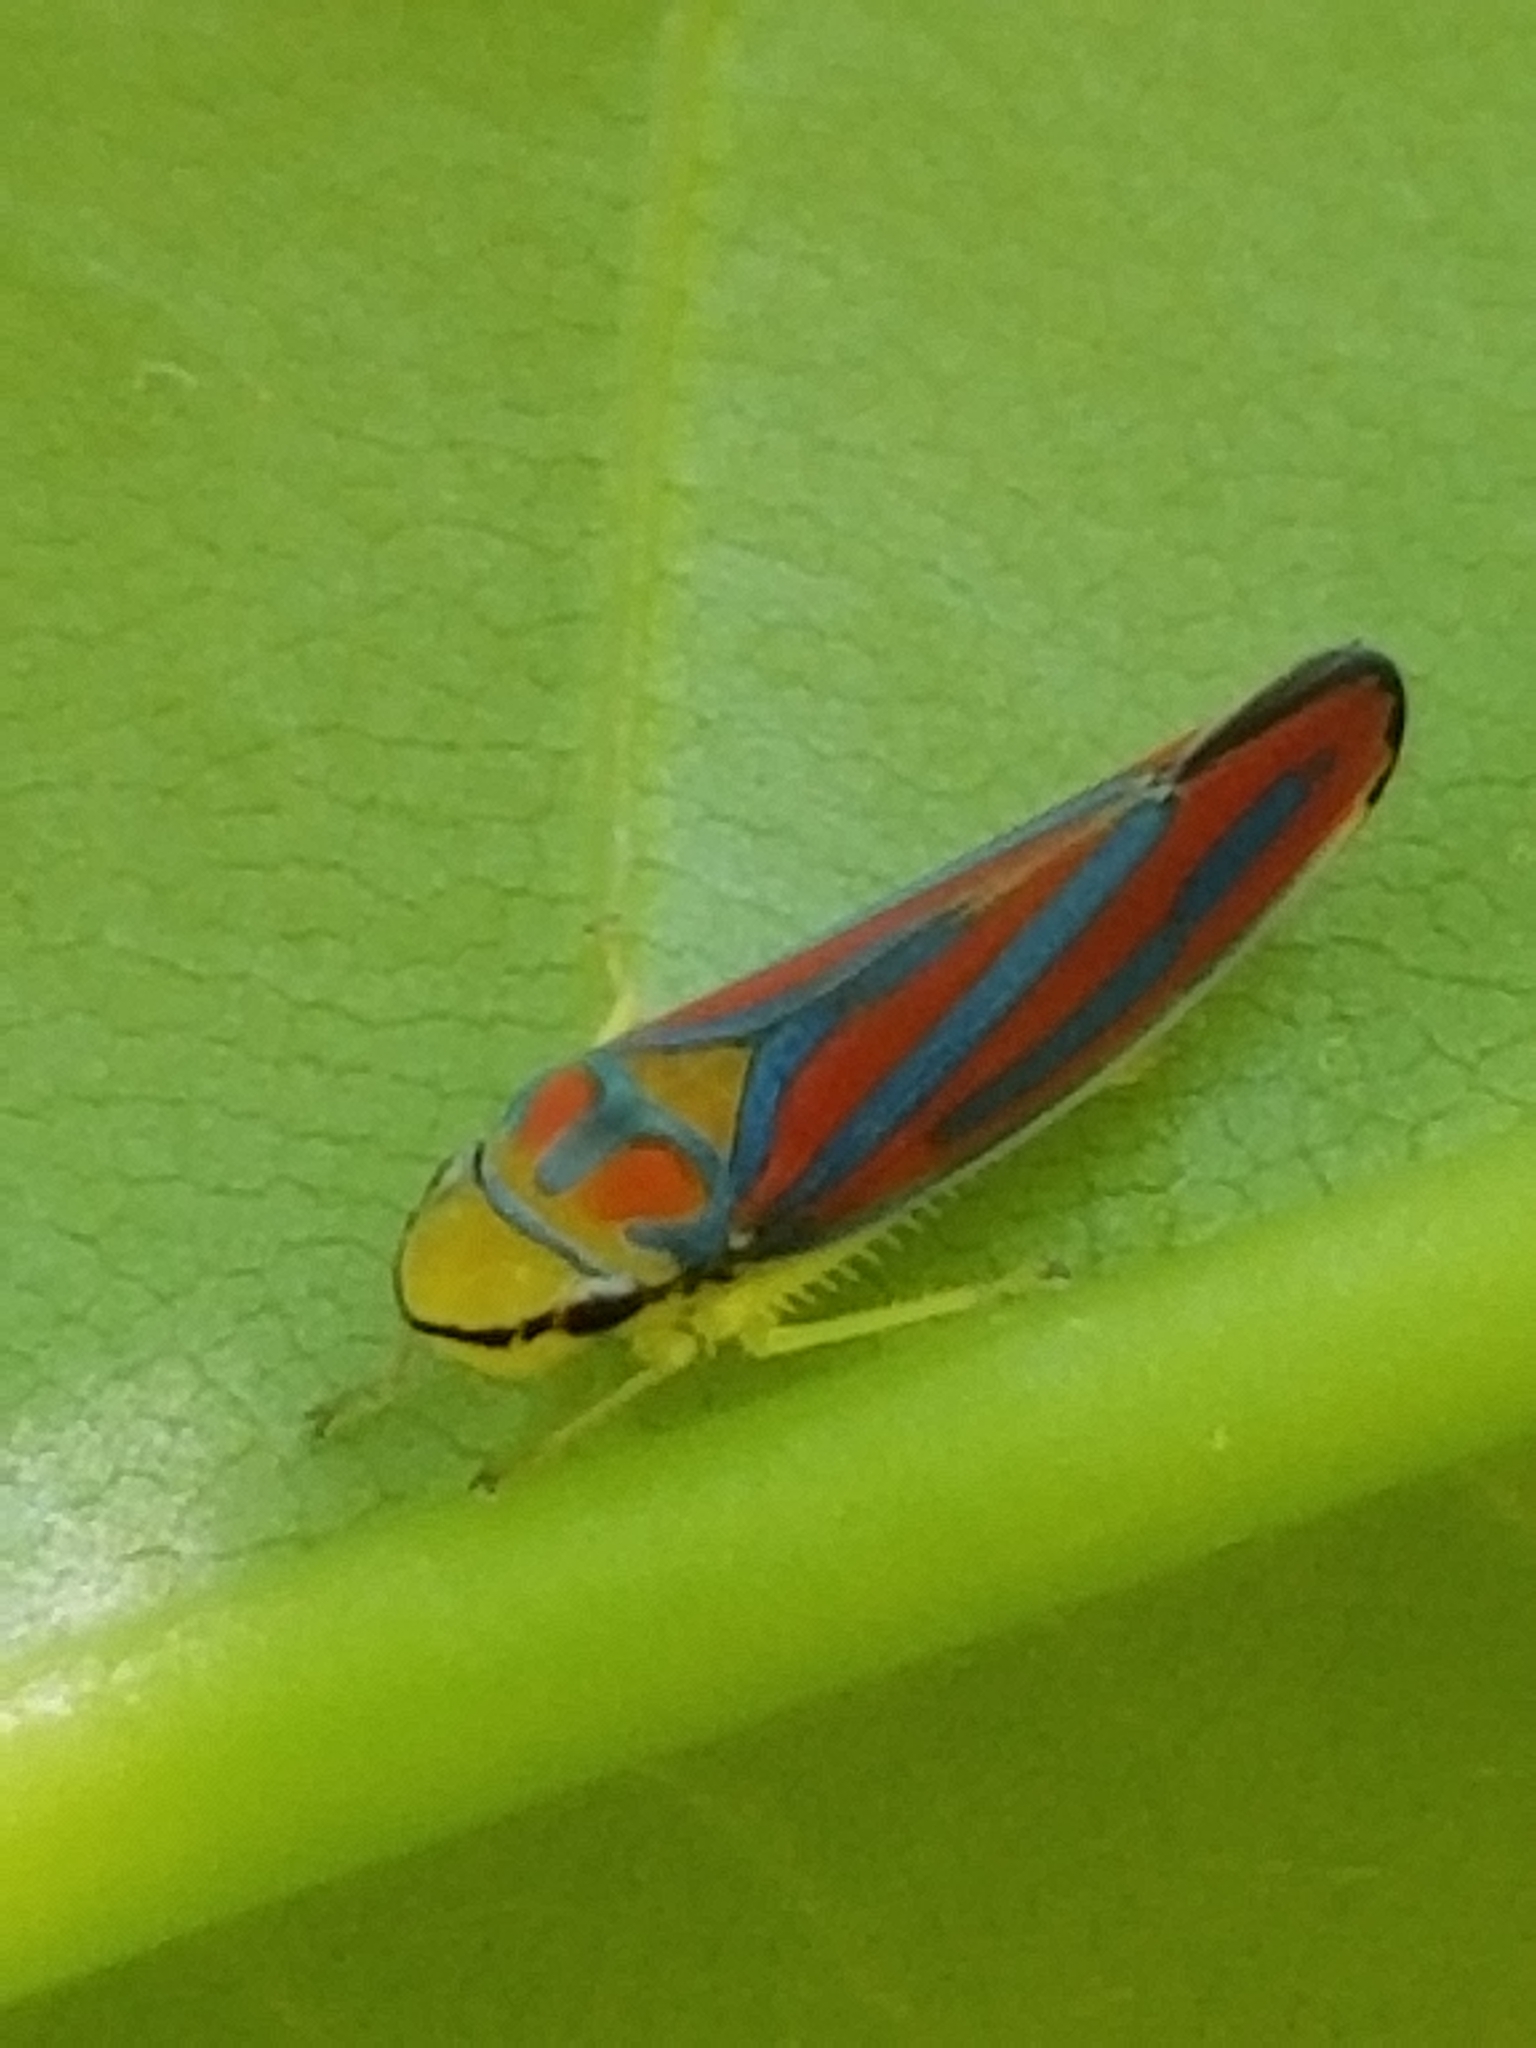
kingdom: Animalia
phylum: Arthropoda
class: Insecta
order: Hemiptera
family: Cicadellidae
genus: Graphocephala
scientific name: Graphocephala coccinea
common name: Candy-striped leafhopper
